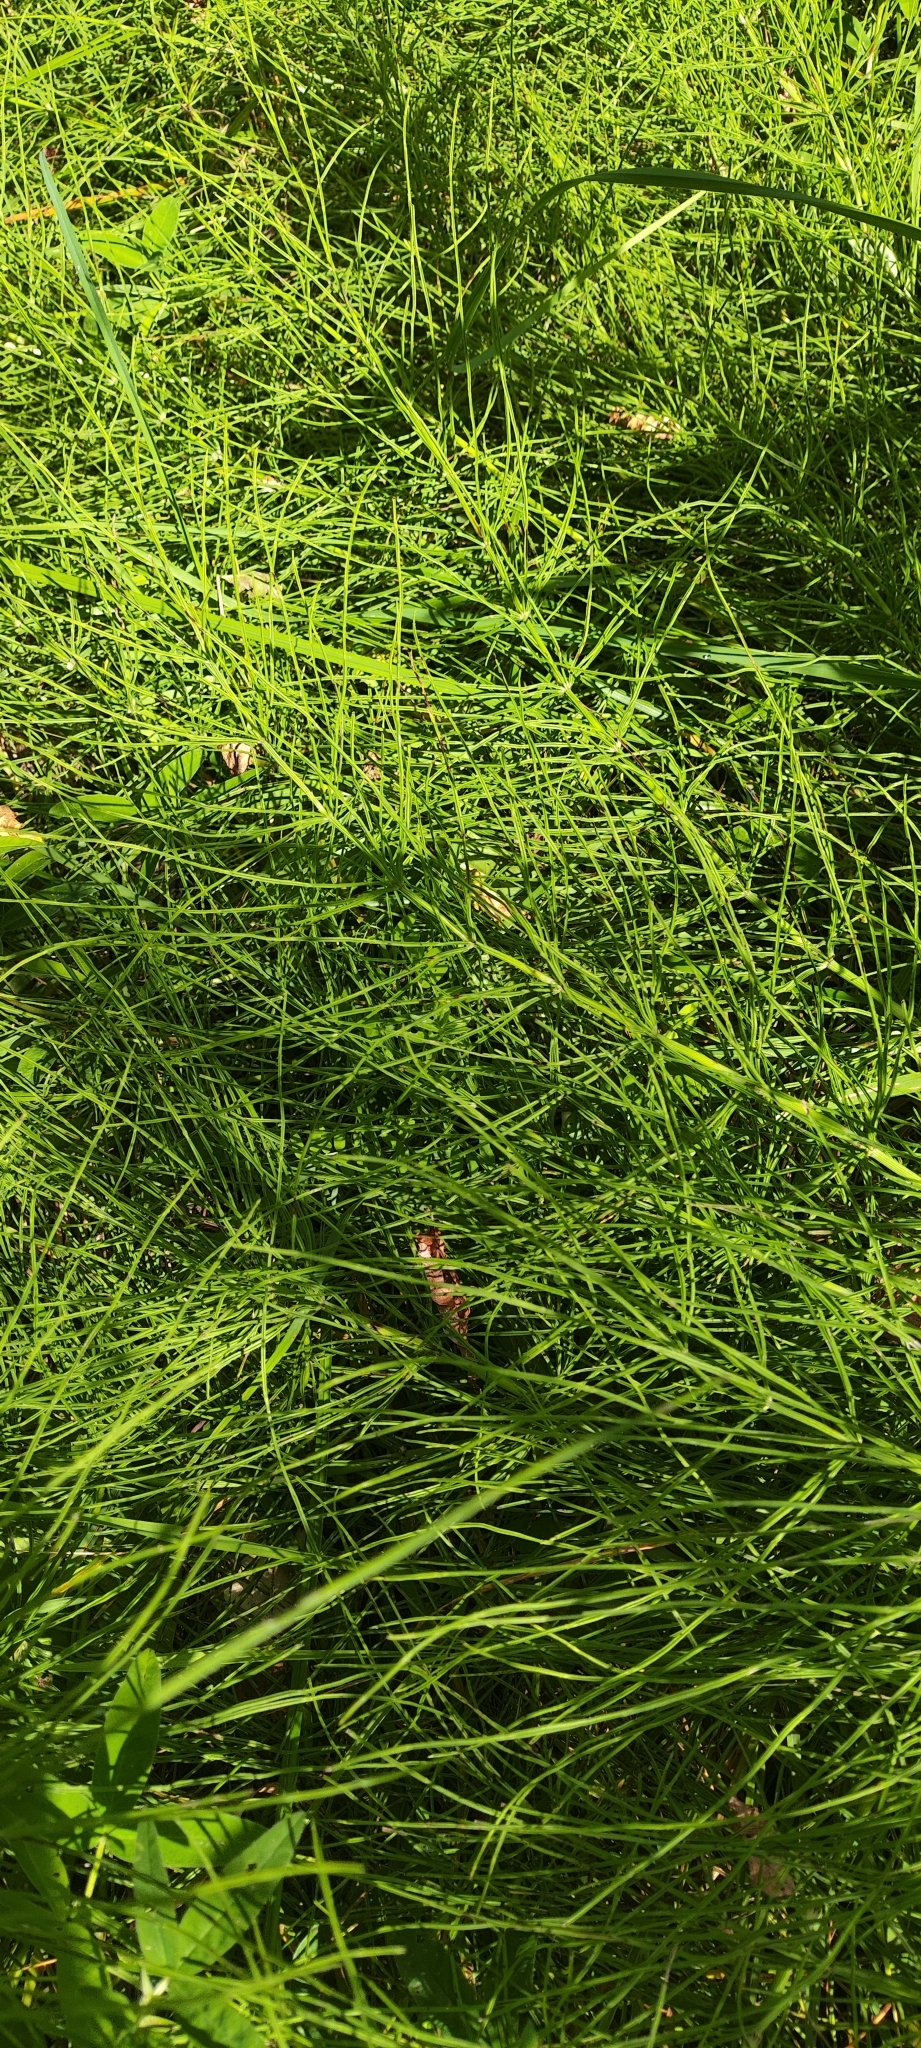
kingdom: Plantae
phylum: Tracheophyta
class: Polypodiopsida
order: Equisetales
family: Equisetaceae
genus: Equisetum
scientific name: Equisetum arvense
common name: Field horsetail
